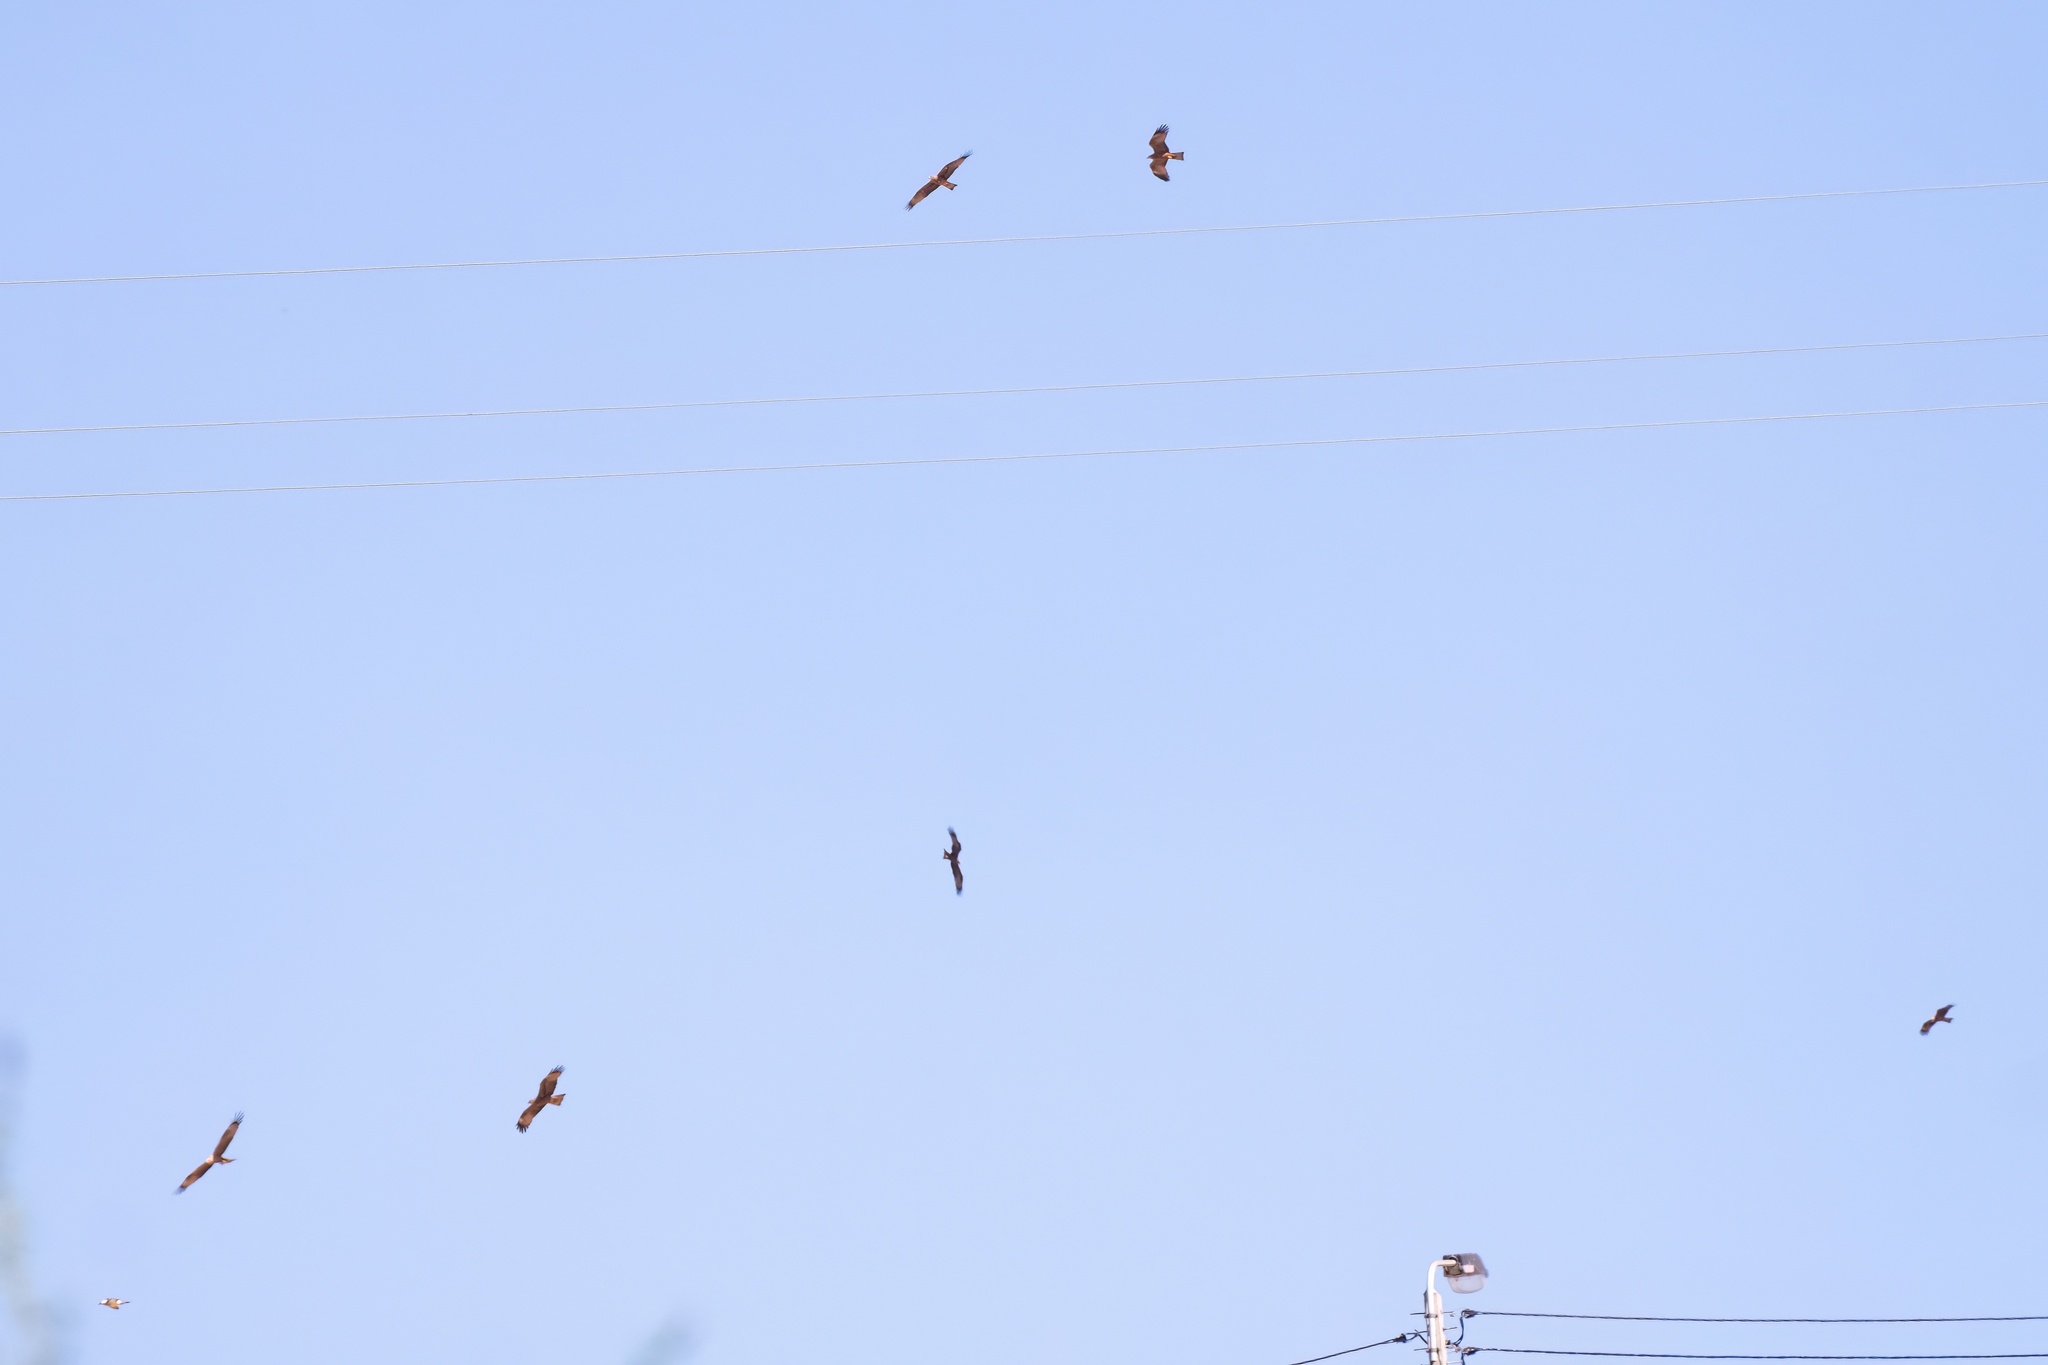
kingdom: Animalia
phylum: Chordata
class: Aves
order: Accipitriformes
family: Accipitridae
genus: Milvus
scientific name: Milvus migrans
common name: Black kite
